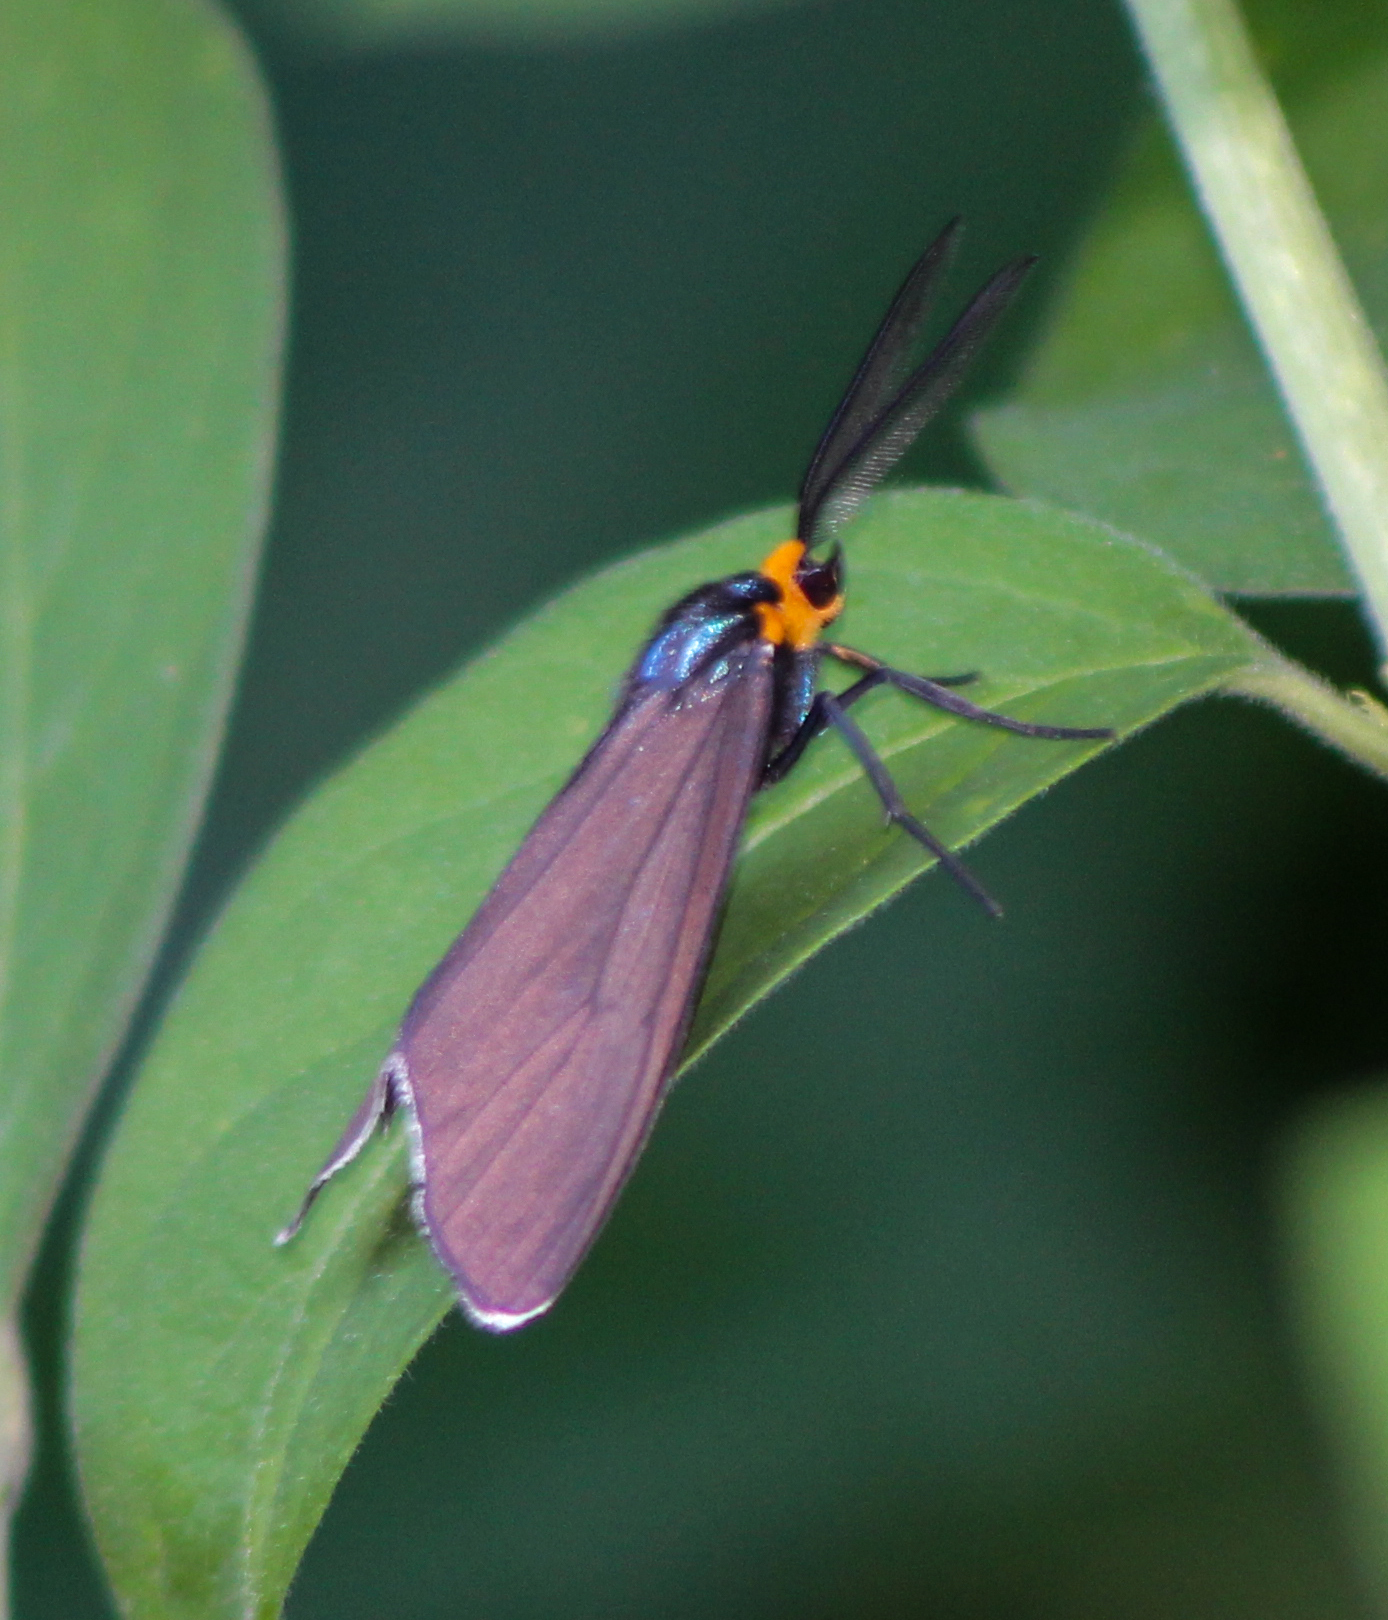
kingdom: Animalia
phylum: Arthropoda
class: Insecta
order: Lepidoptera
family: Erebidae
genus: Ctenucha
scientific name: Ctenucha virginica
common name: Virginia ctenucha moth
